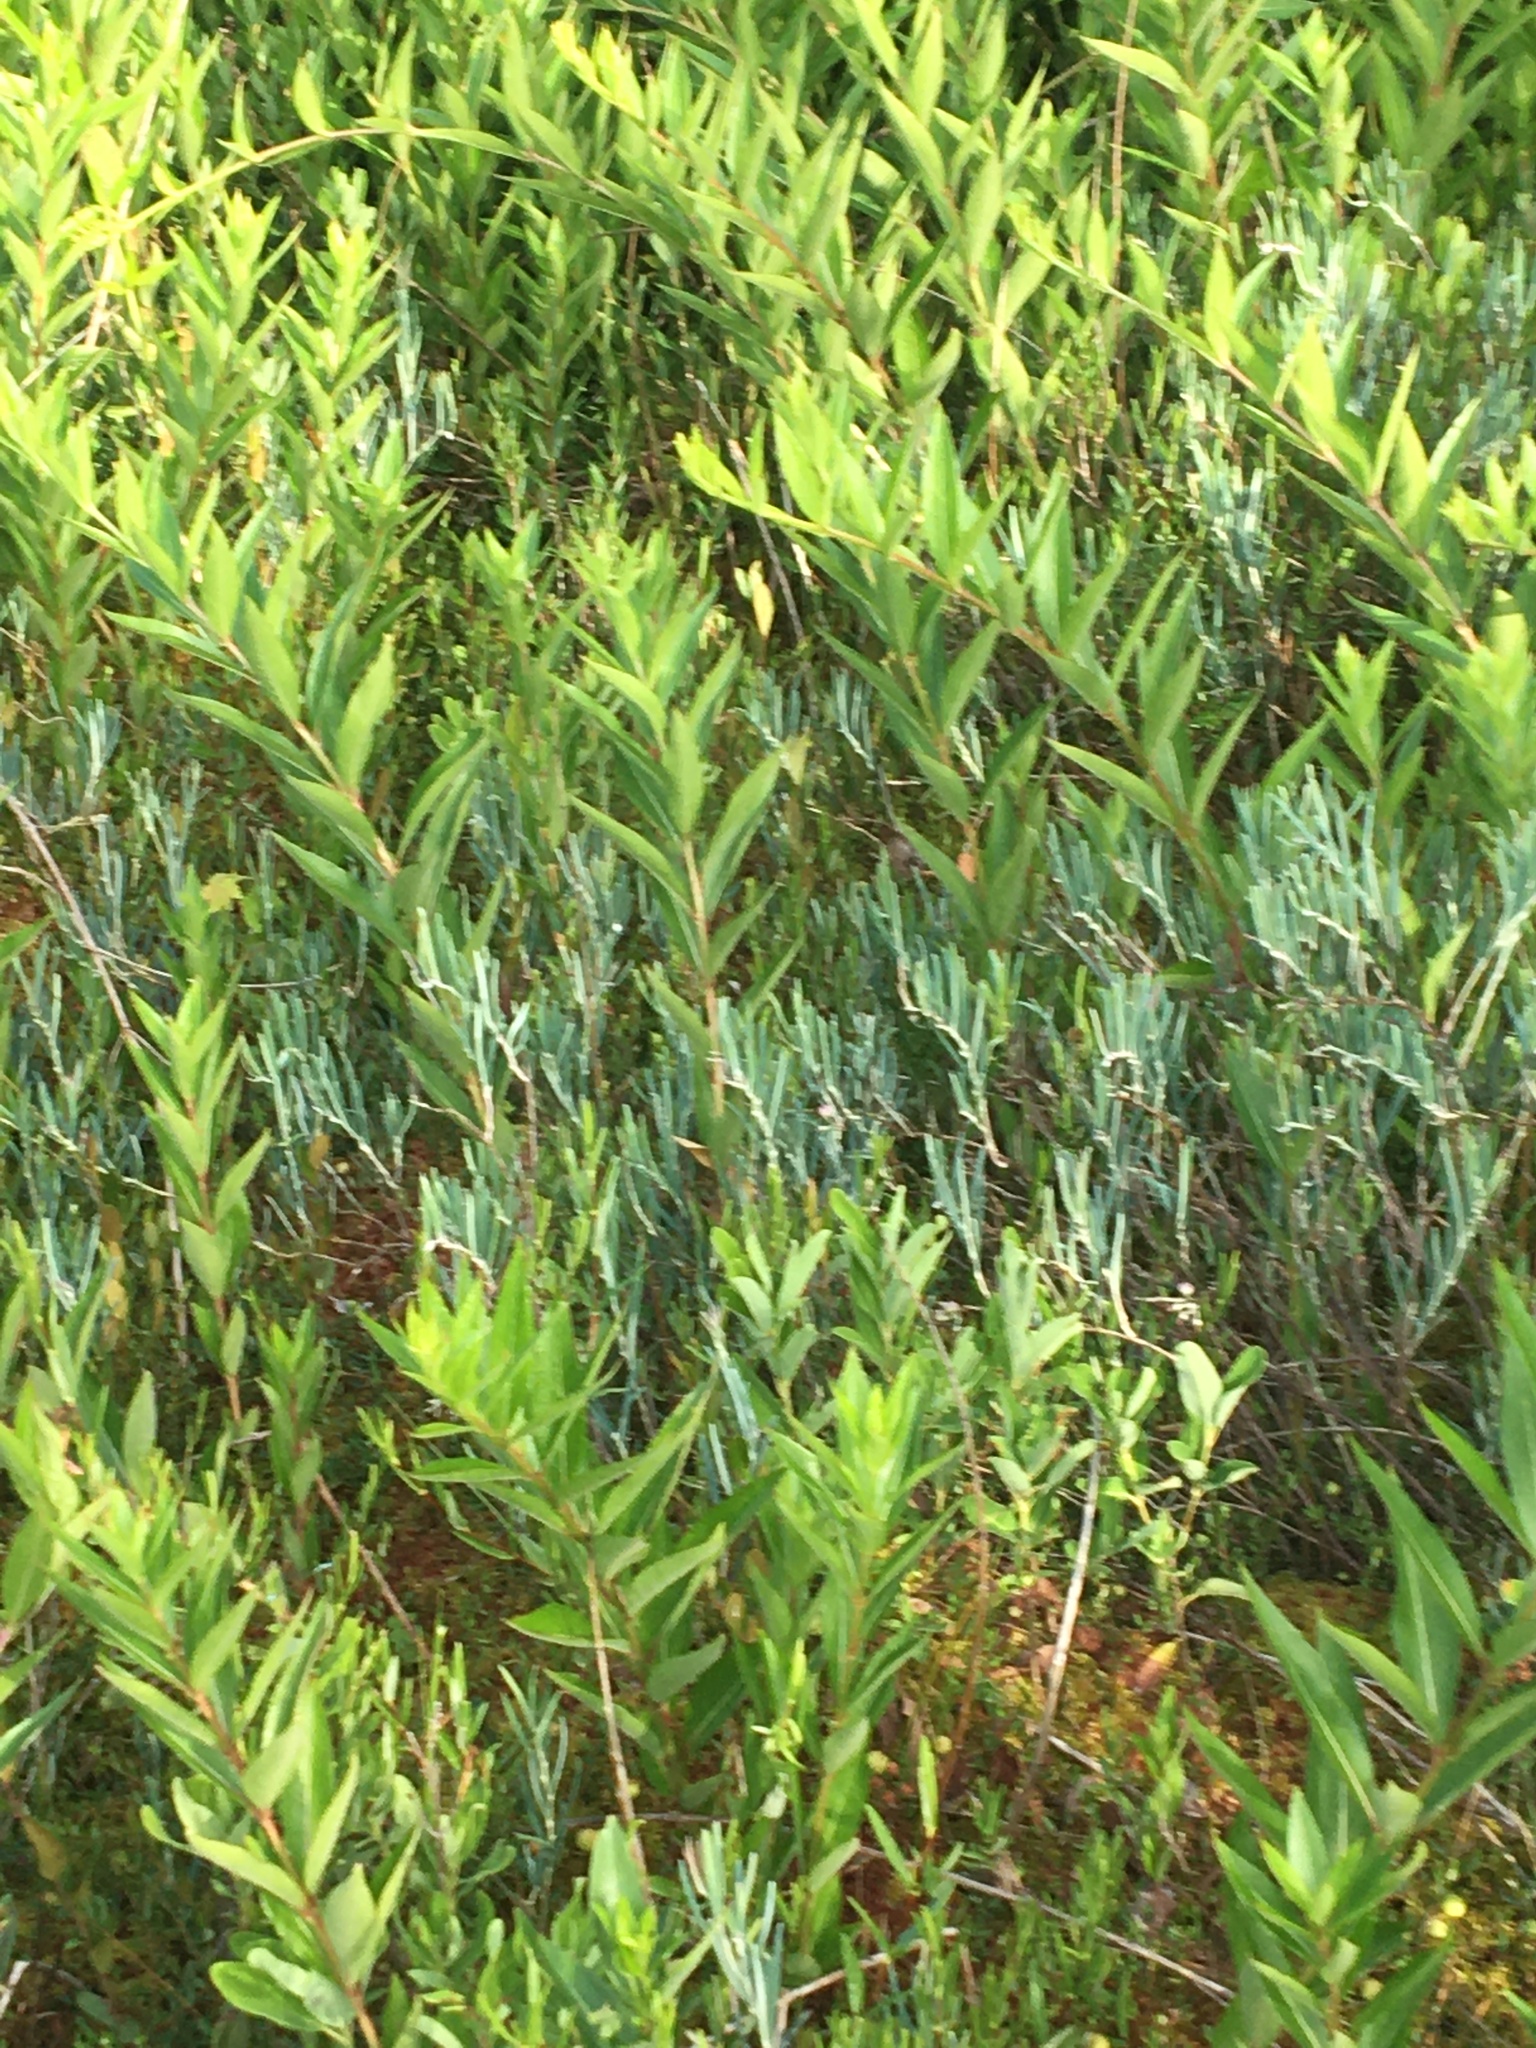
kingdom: Plantae
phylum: Tracheophyta
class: Magnoliopsida
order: Ericales
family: Ericaceae
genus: Andromeda
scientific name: Andromeda polifolia
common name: Bog-rosemary
